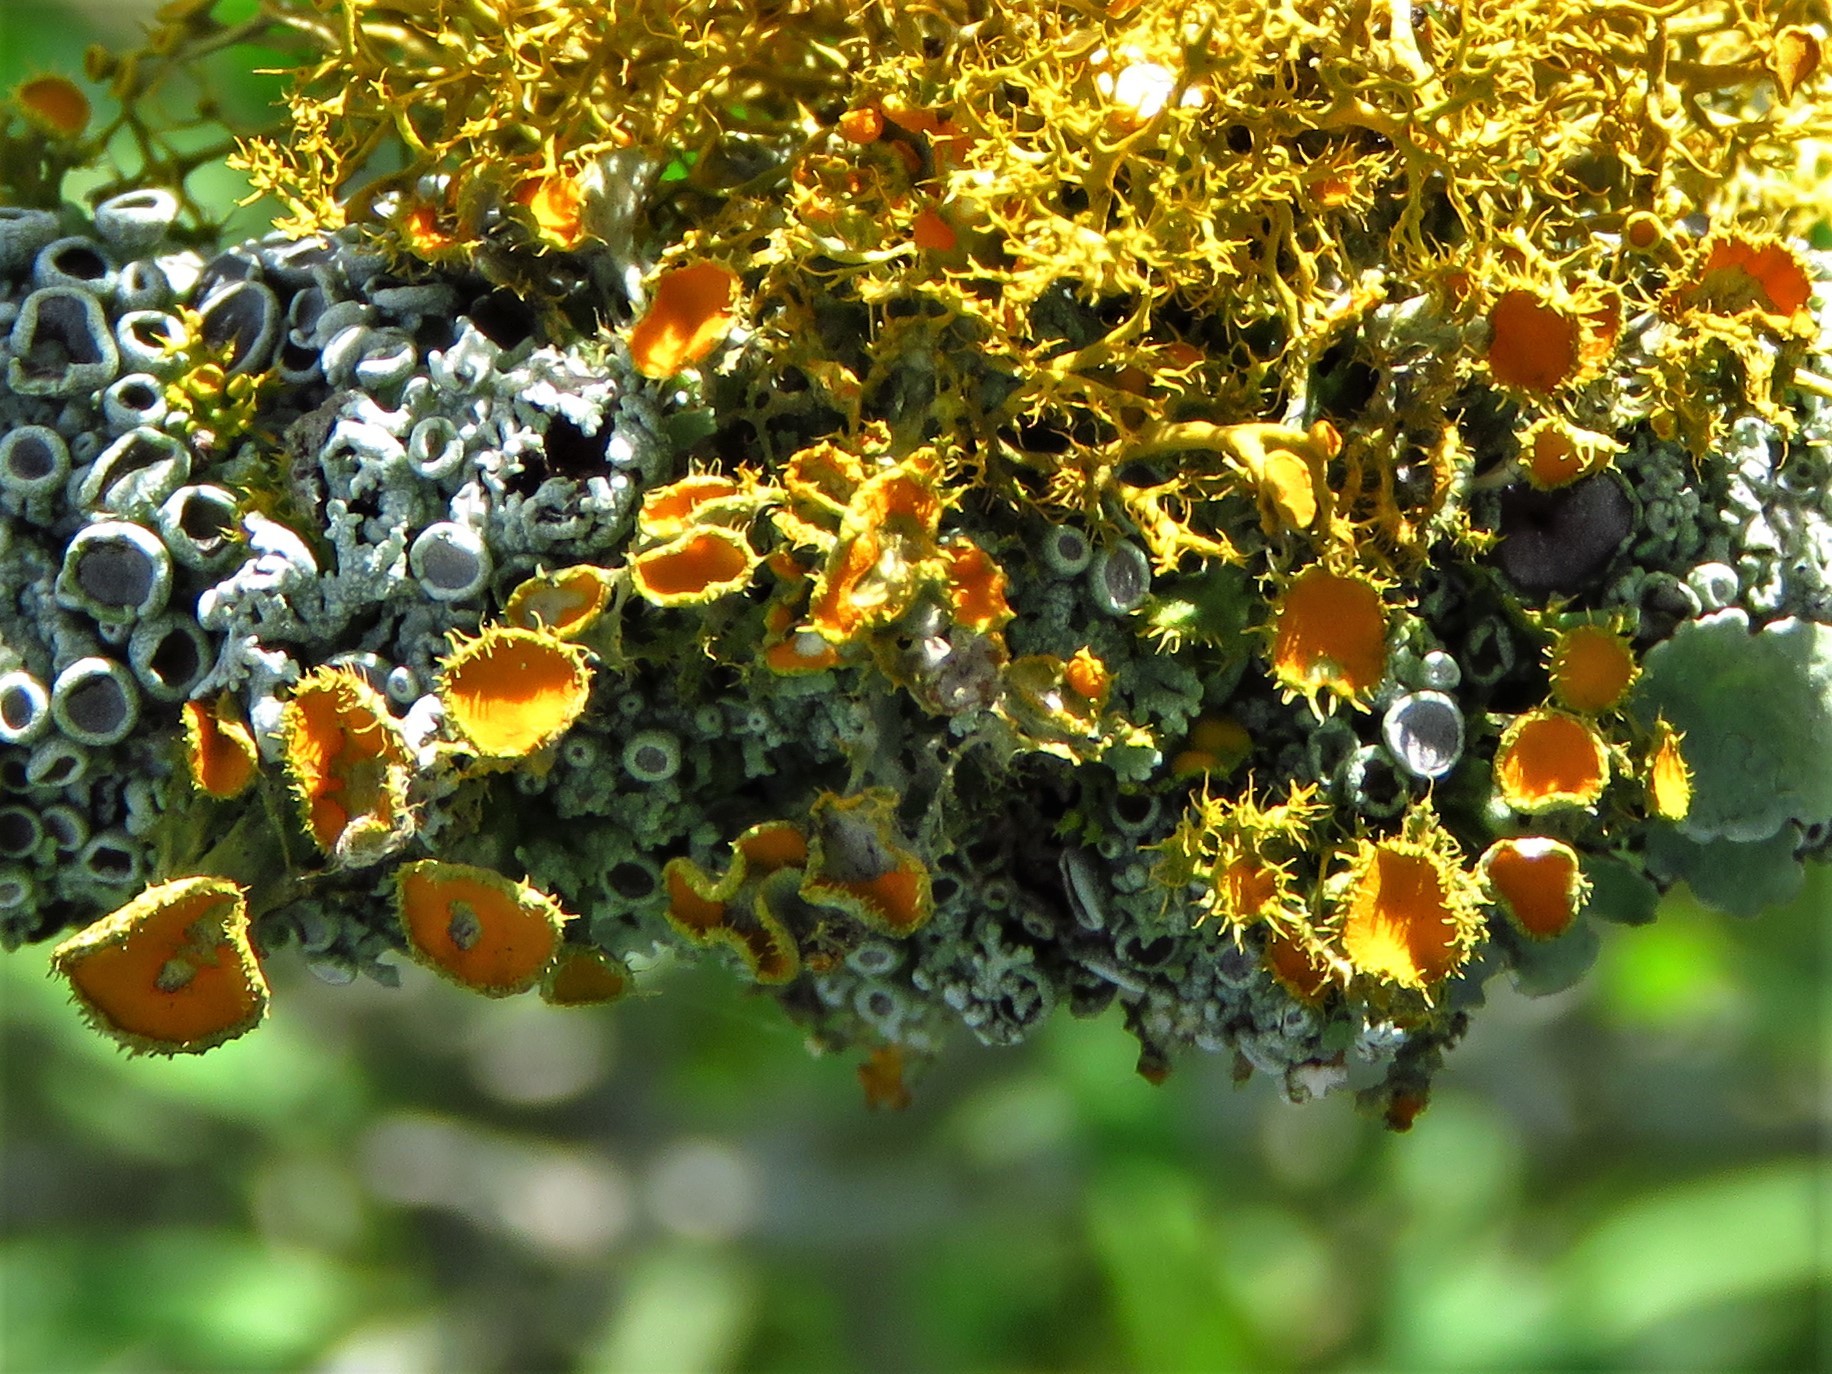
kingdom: Fungi
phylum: Ascomycota
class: Lecanoromycetes
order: Teloschistales
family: Teloschistaceae
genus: Niorma
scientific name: Niorma chrysophthalma
